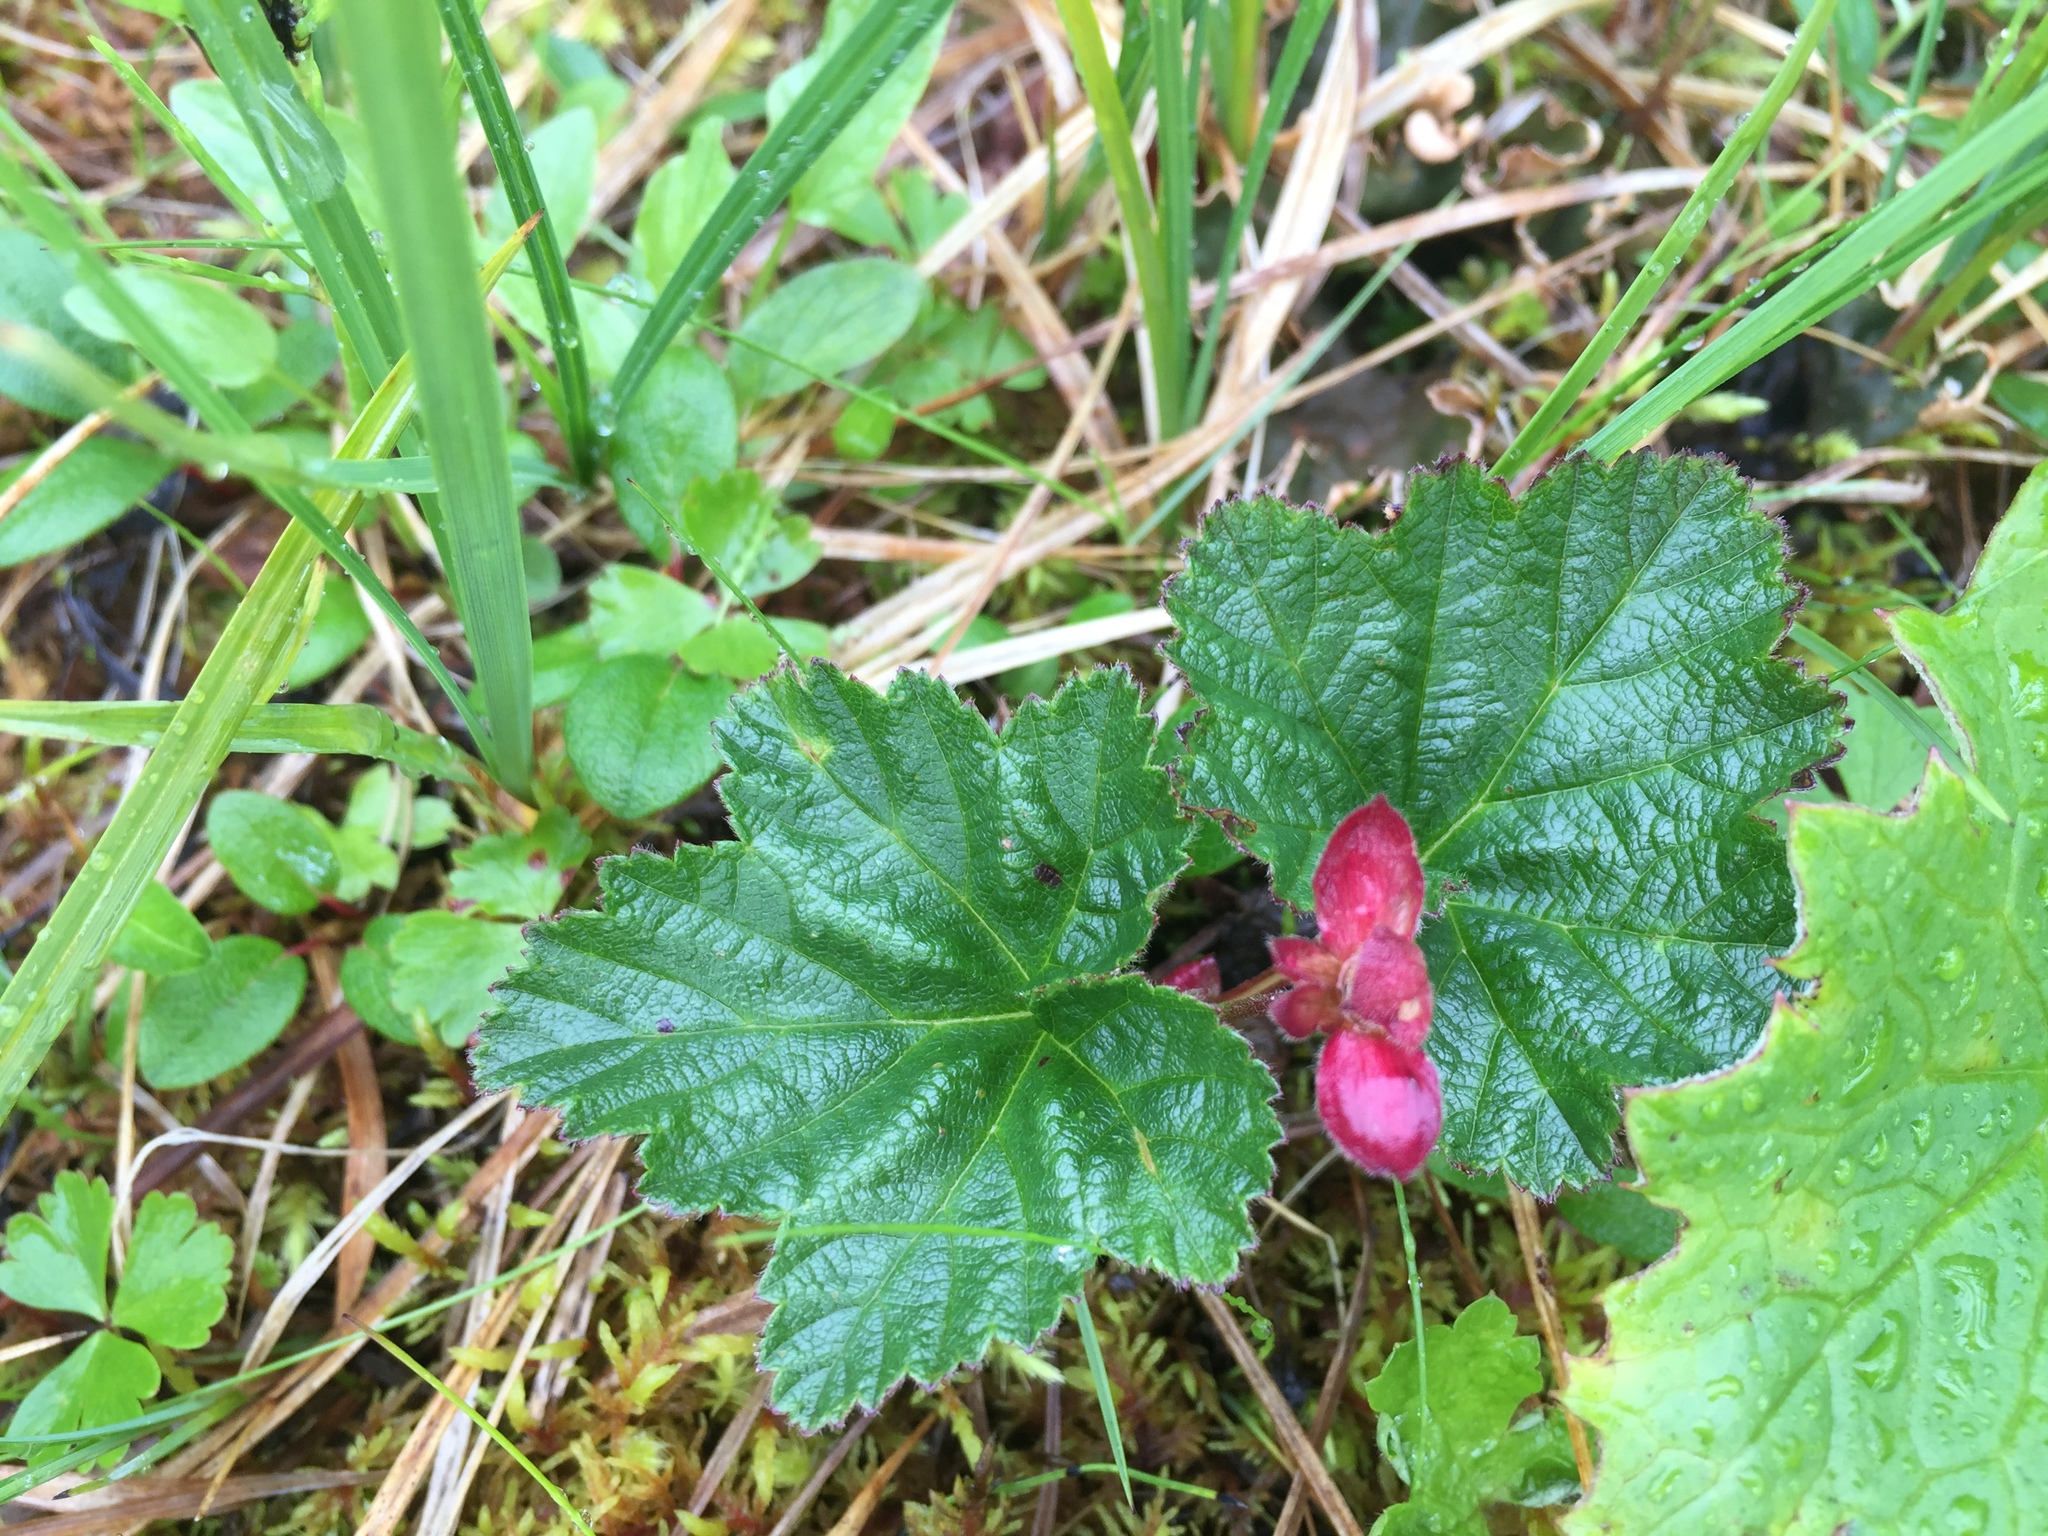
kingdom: Plantae
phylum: Tracheophyta
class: Magnoliopsida
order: Rosales
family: Rosaceae
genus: Rubus
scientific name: Rubus chamaemorus
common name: Cloudberry
